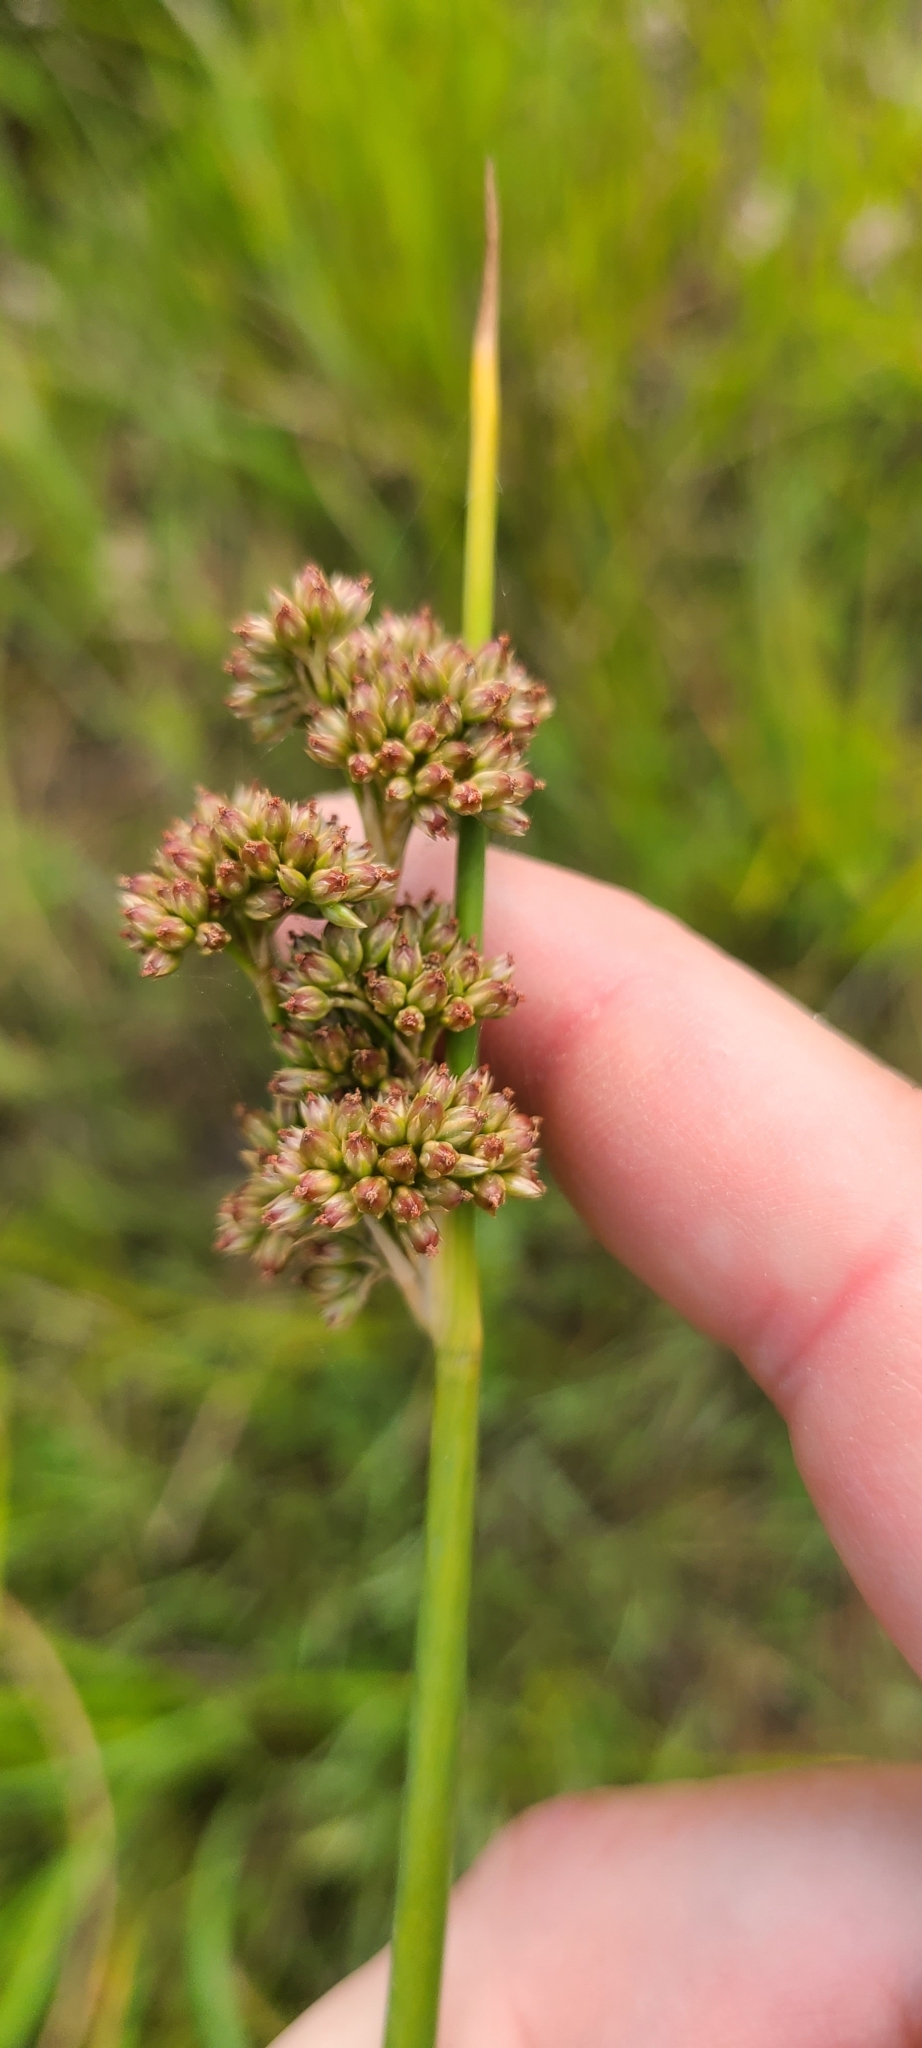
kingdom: Plantae
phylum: Tracheophyta
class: Liliopsida
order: Poales
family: Juncaceae
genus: Juncus
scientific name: Juncus pallidus
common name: Great soft-rush
